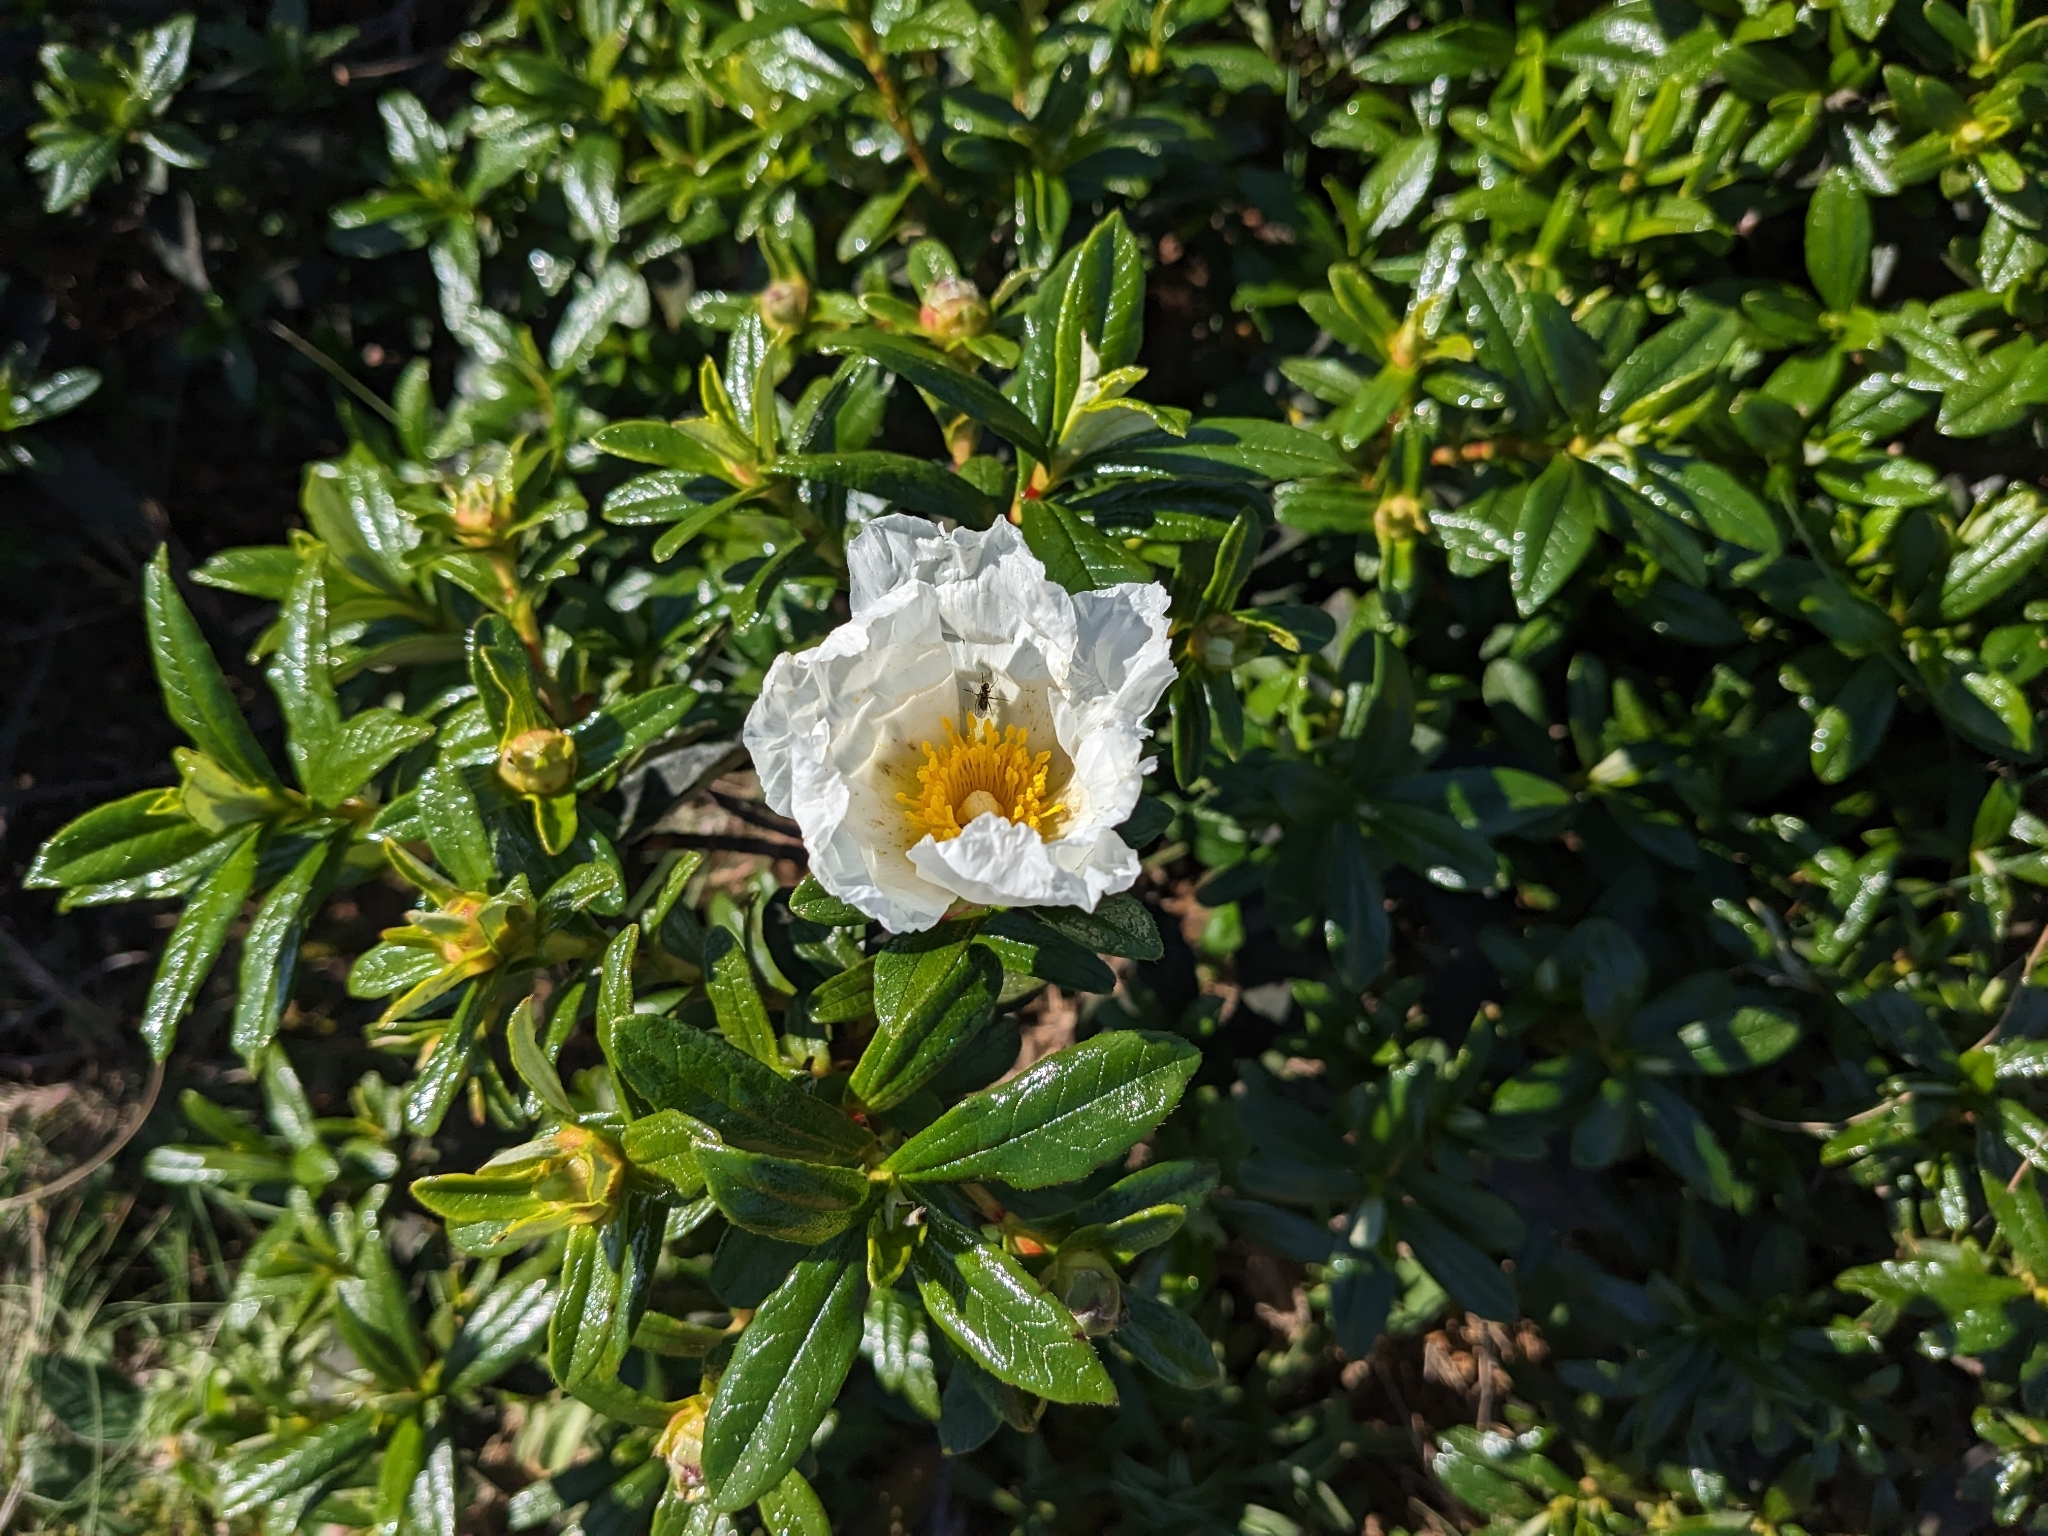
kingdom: Plantae
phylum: Tracheophyta
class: Magnoliopsida
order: Malvales
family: Cistaceae
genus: Cistus
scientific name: Cistus ladanifer
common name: Common gum cistus
